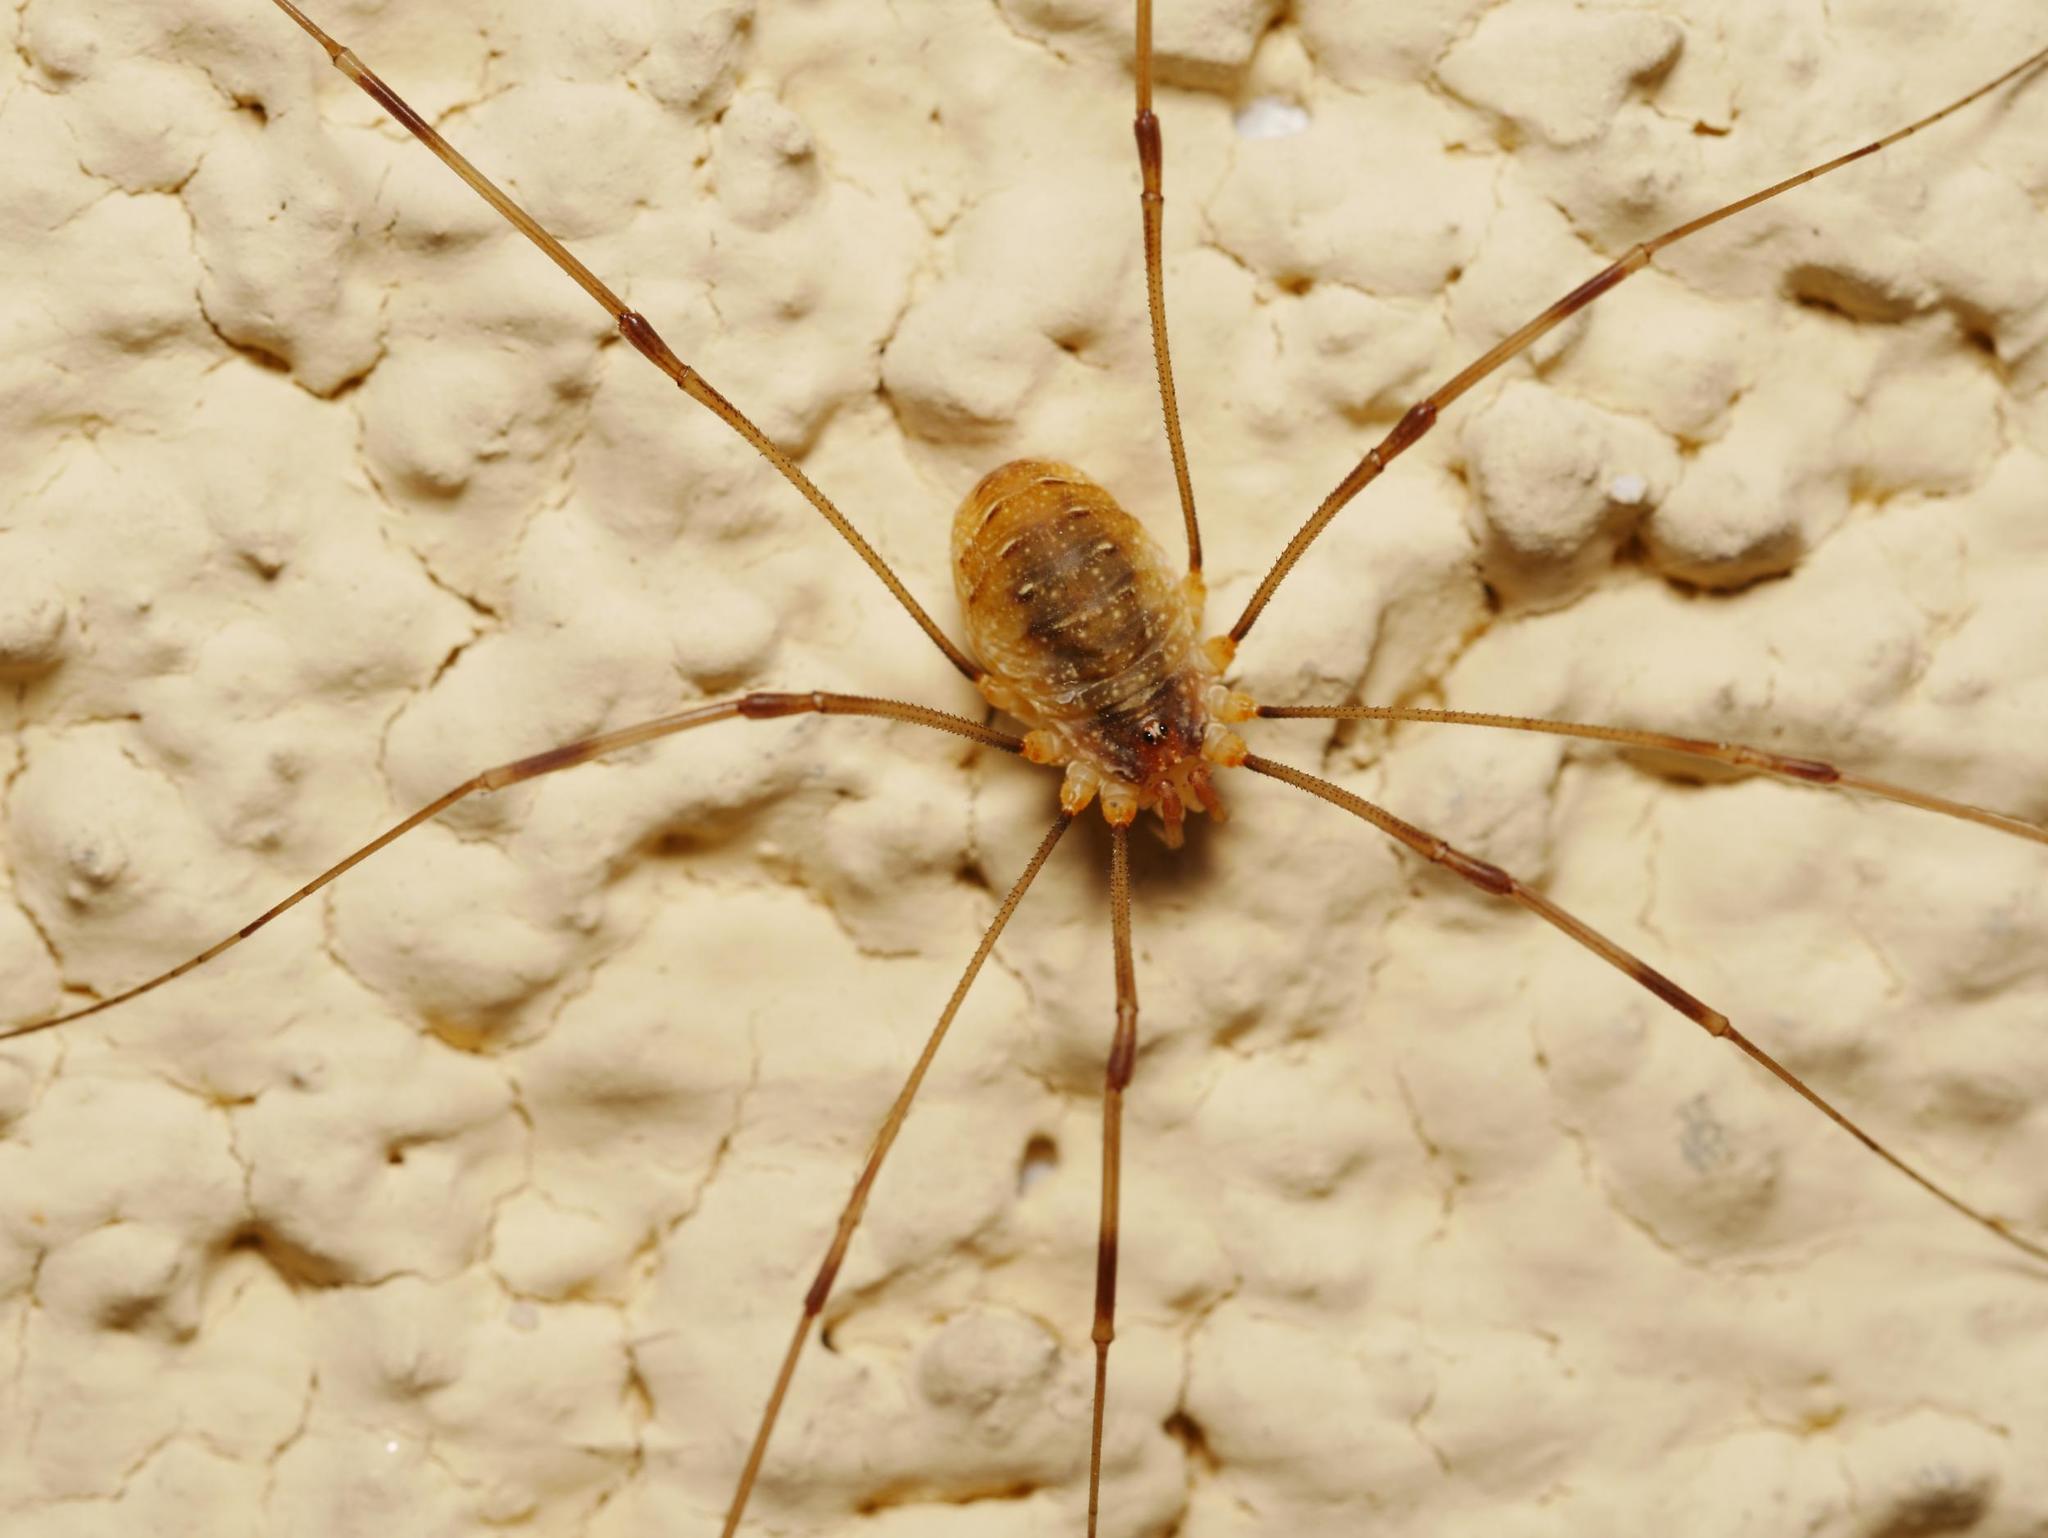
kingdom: Animalia
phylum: Arthropoda
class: Arachnida
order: Opiliones
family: Phalangiidae
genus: Opilio
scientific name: Opilio canestrinii
